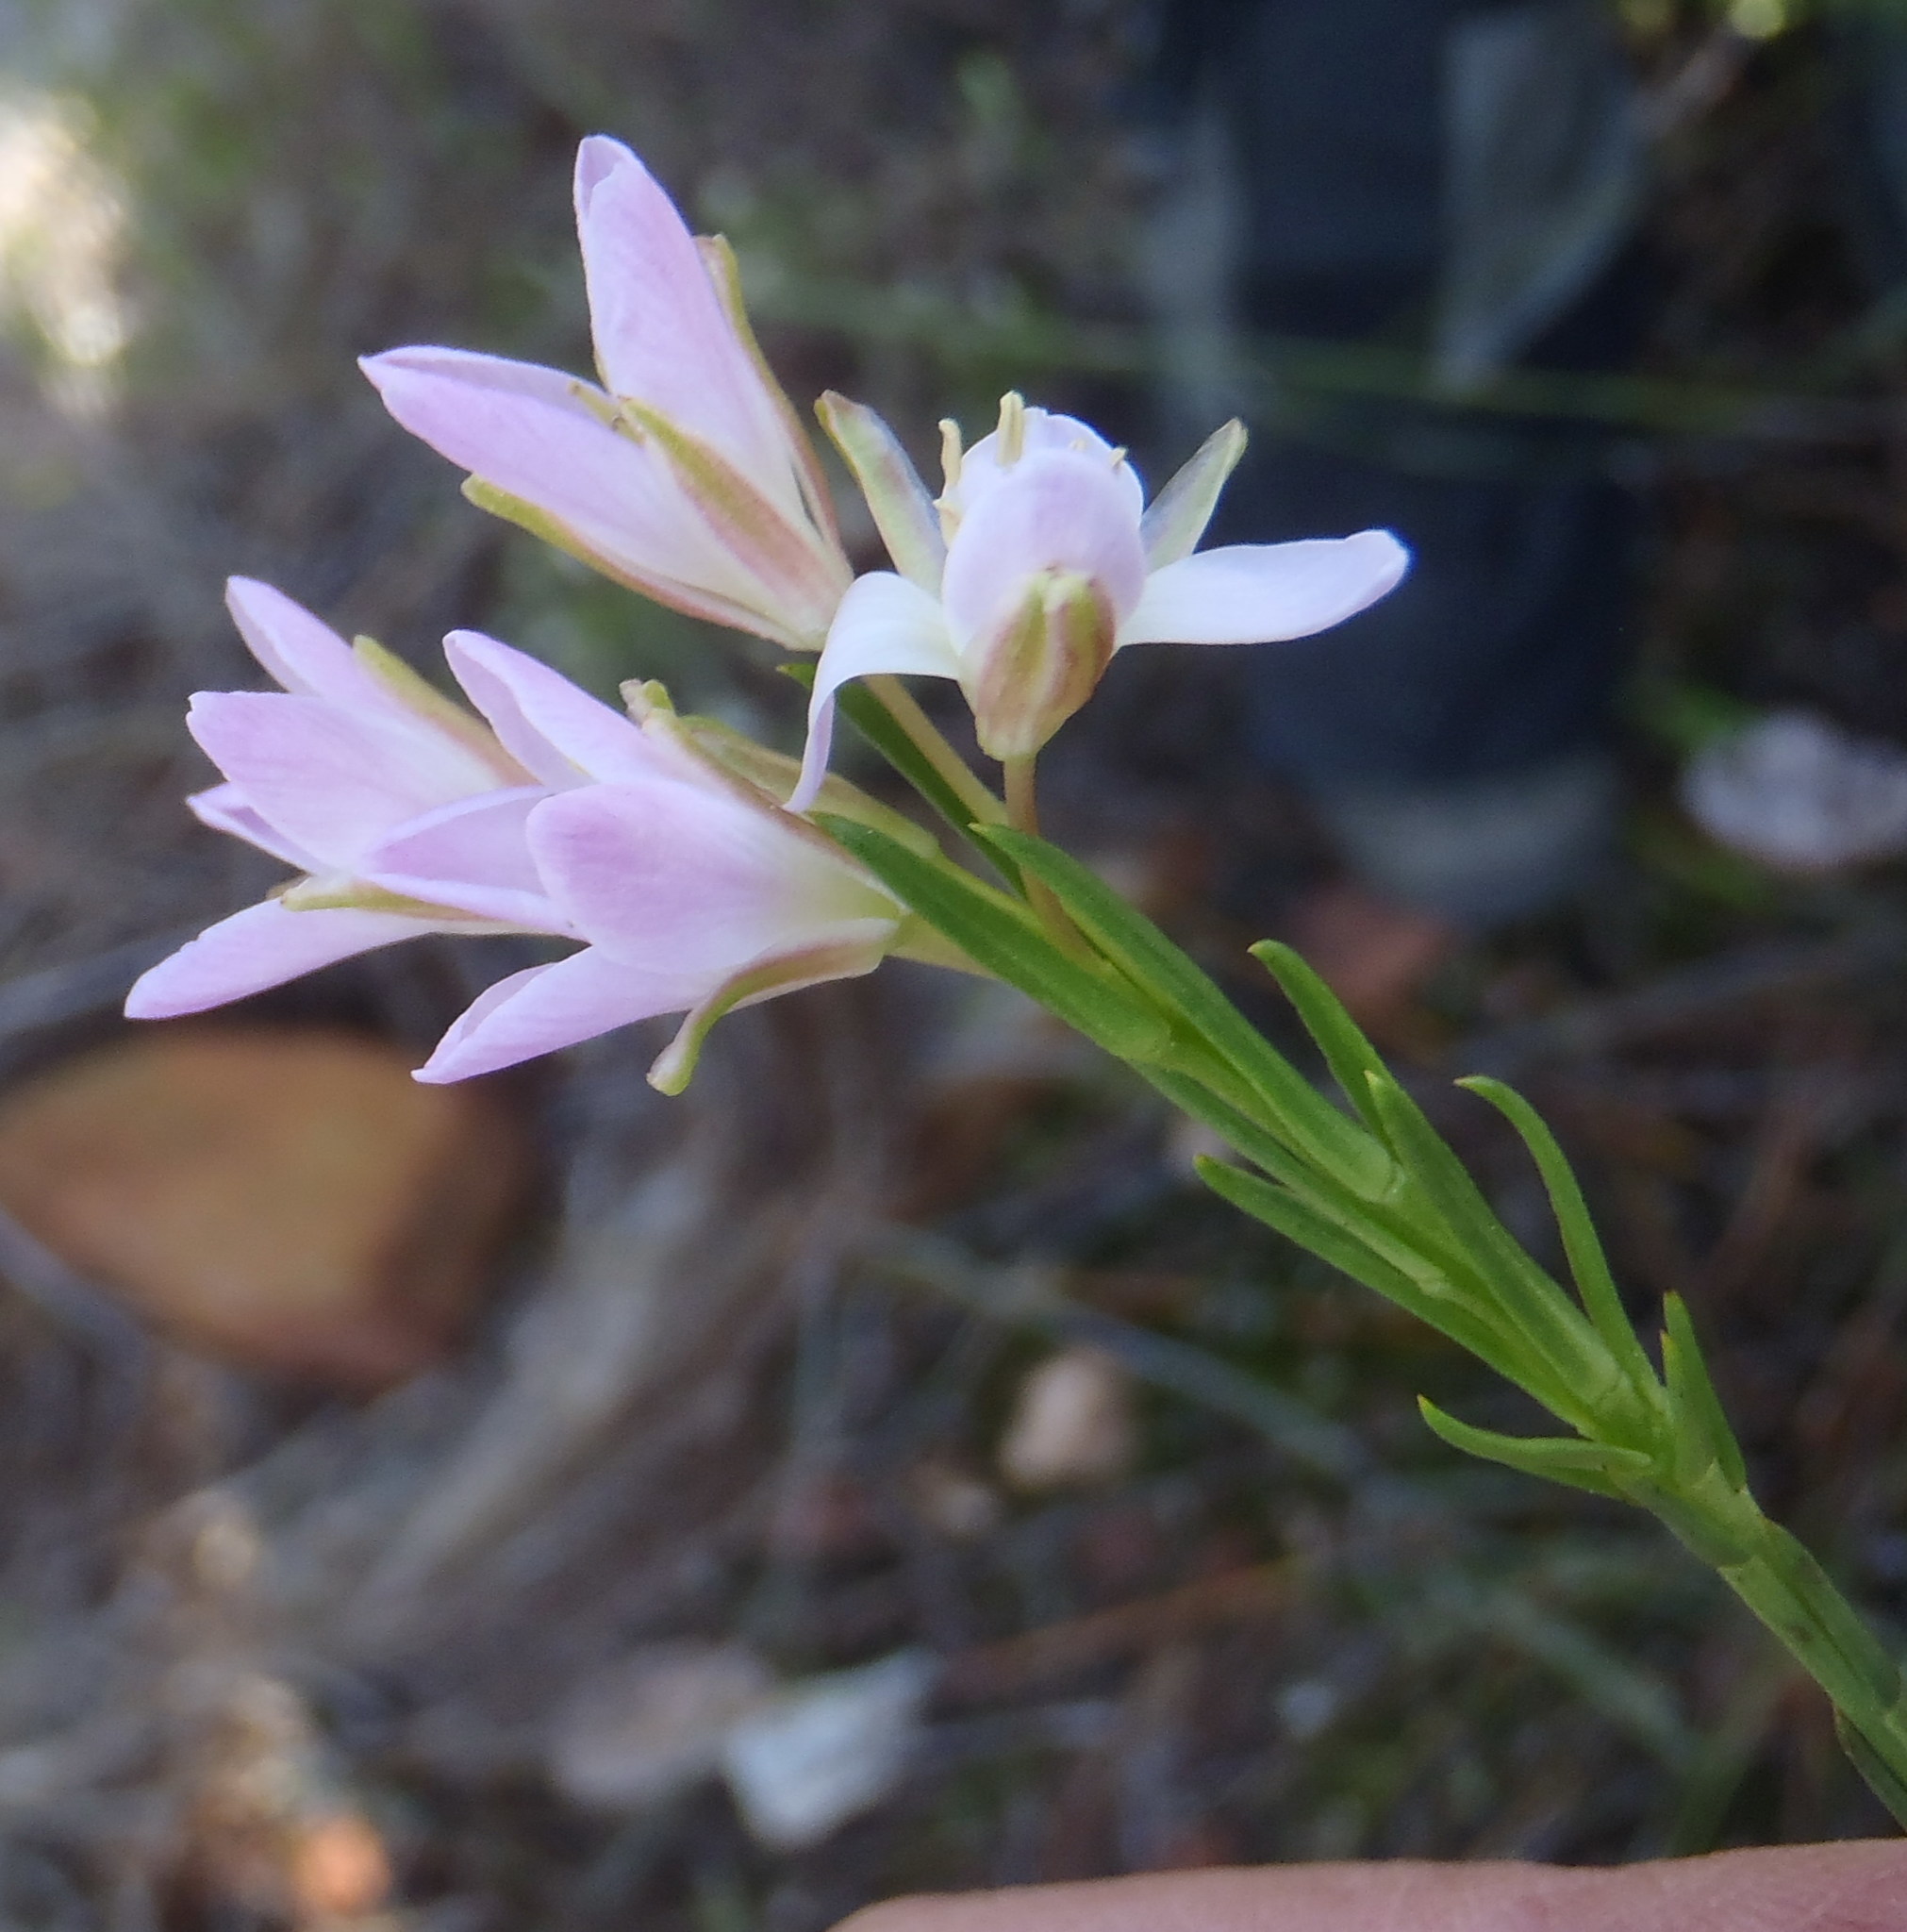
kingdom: Plantae
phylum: Tracheophyta
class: Magnoliopsida
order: Brassicales
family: Brassicaceae
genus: Heliophila
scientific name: Heliophila scoparia
